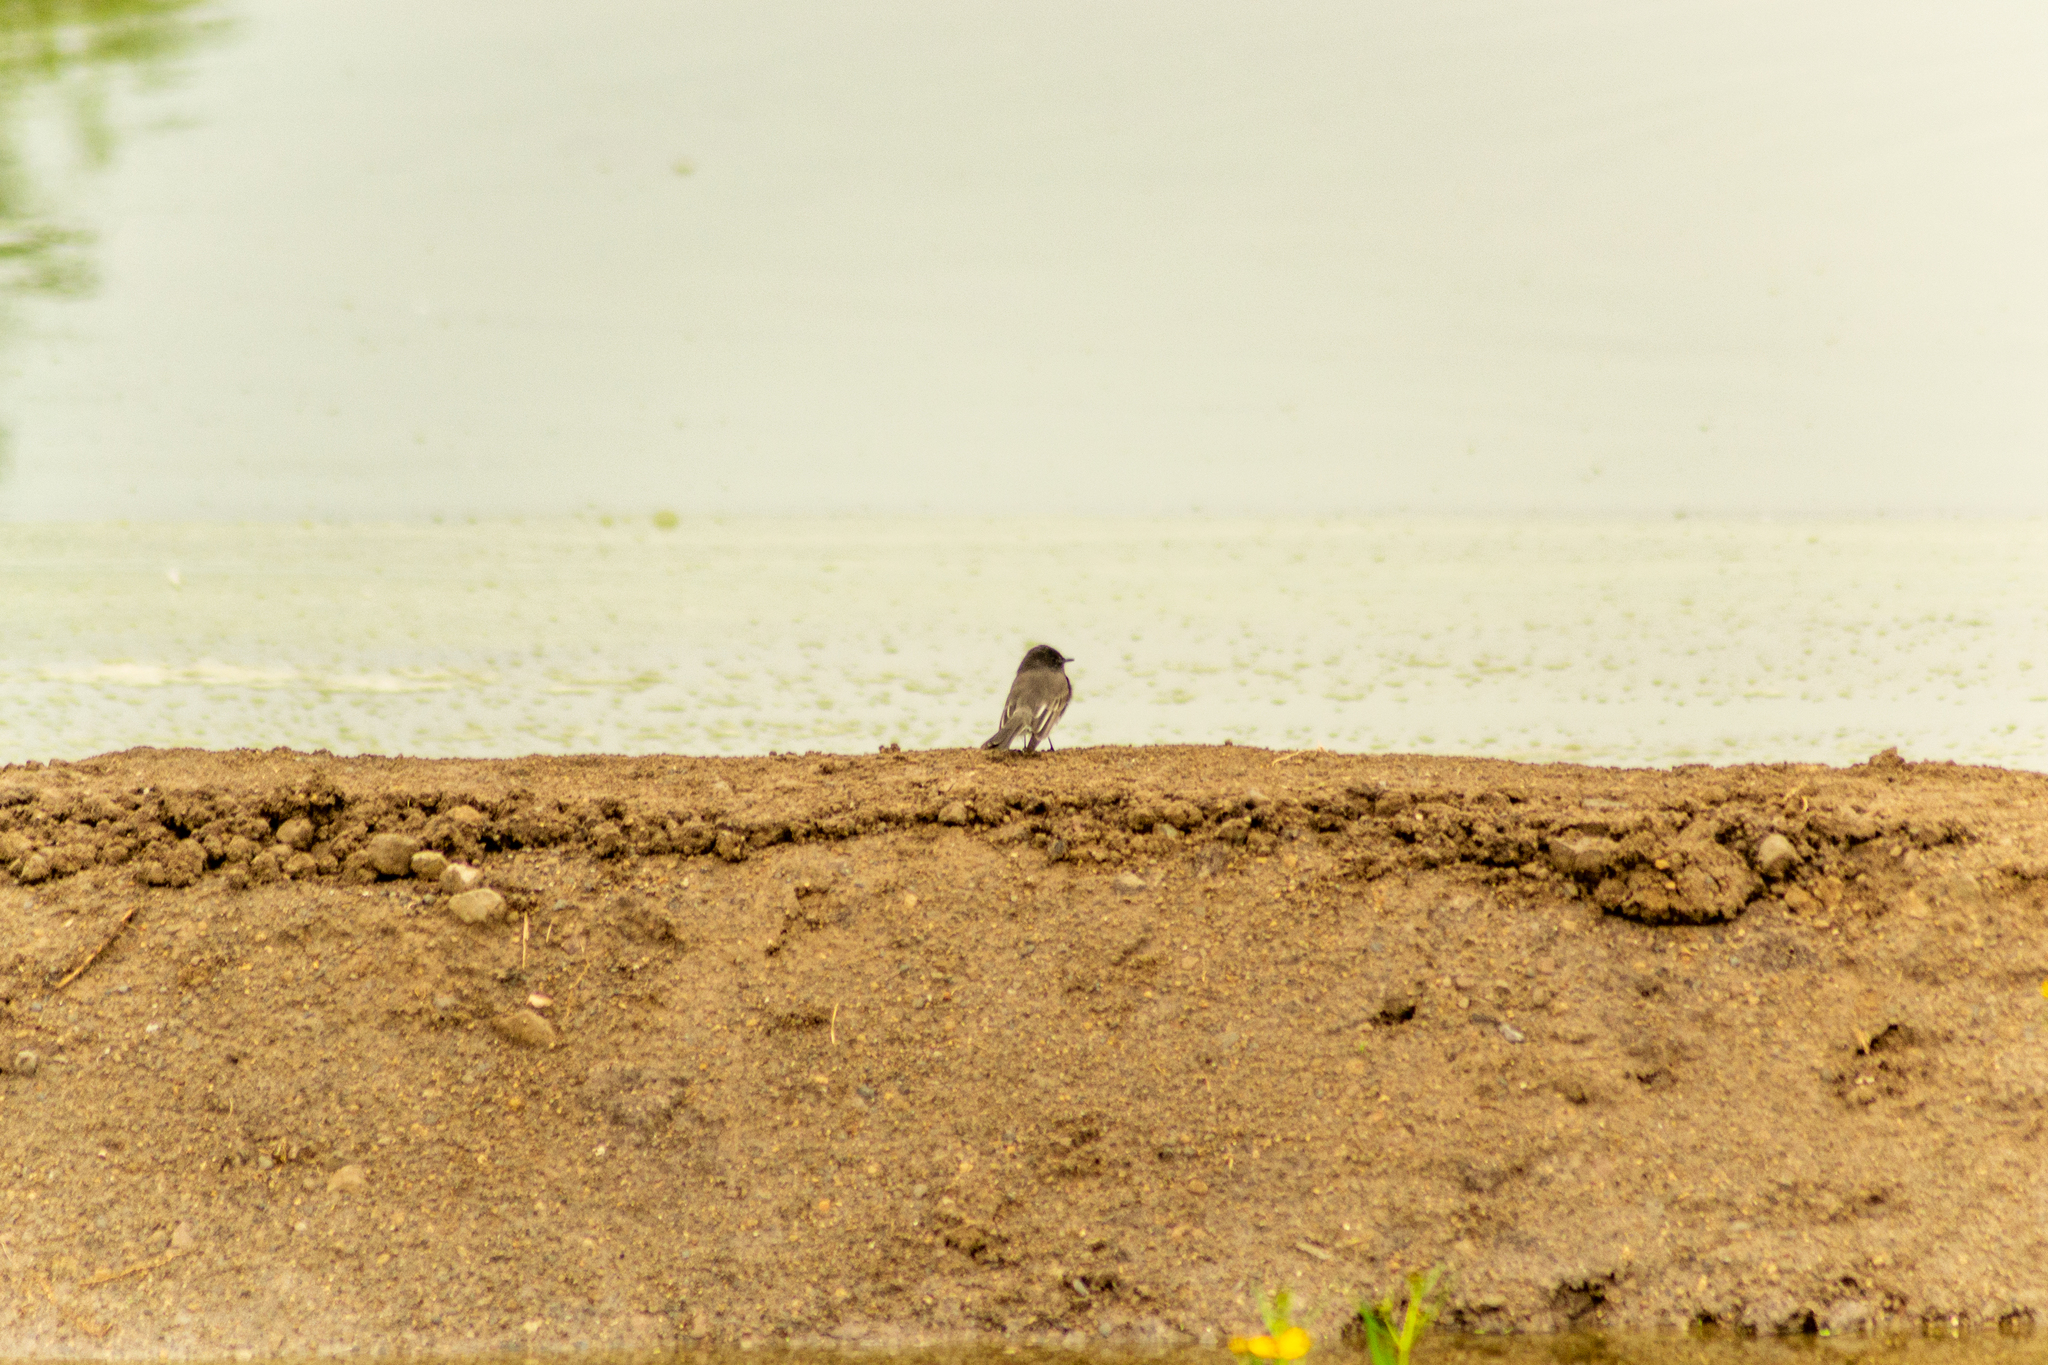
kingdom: Animalia
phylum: Chordata
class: Aves
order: Passeriformes
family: Tyrannidae
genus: Sayornis
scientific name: Sayornis nigricans
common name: Black phoebe
